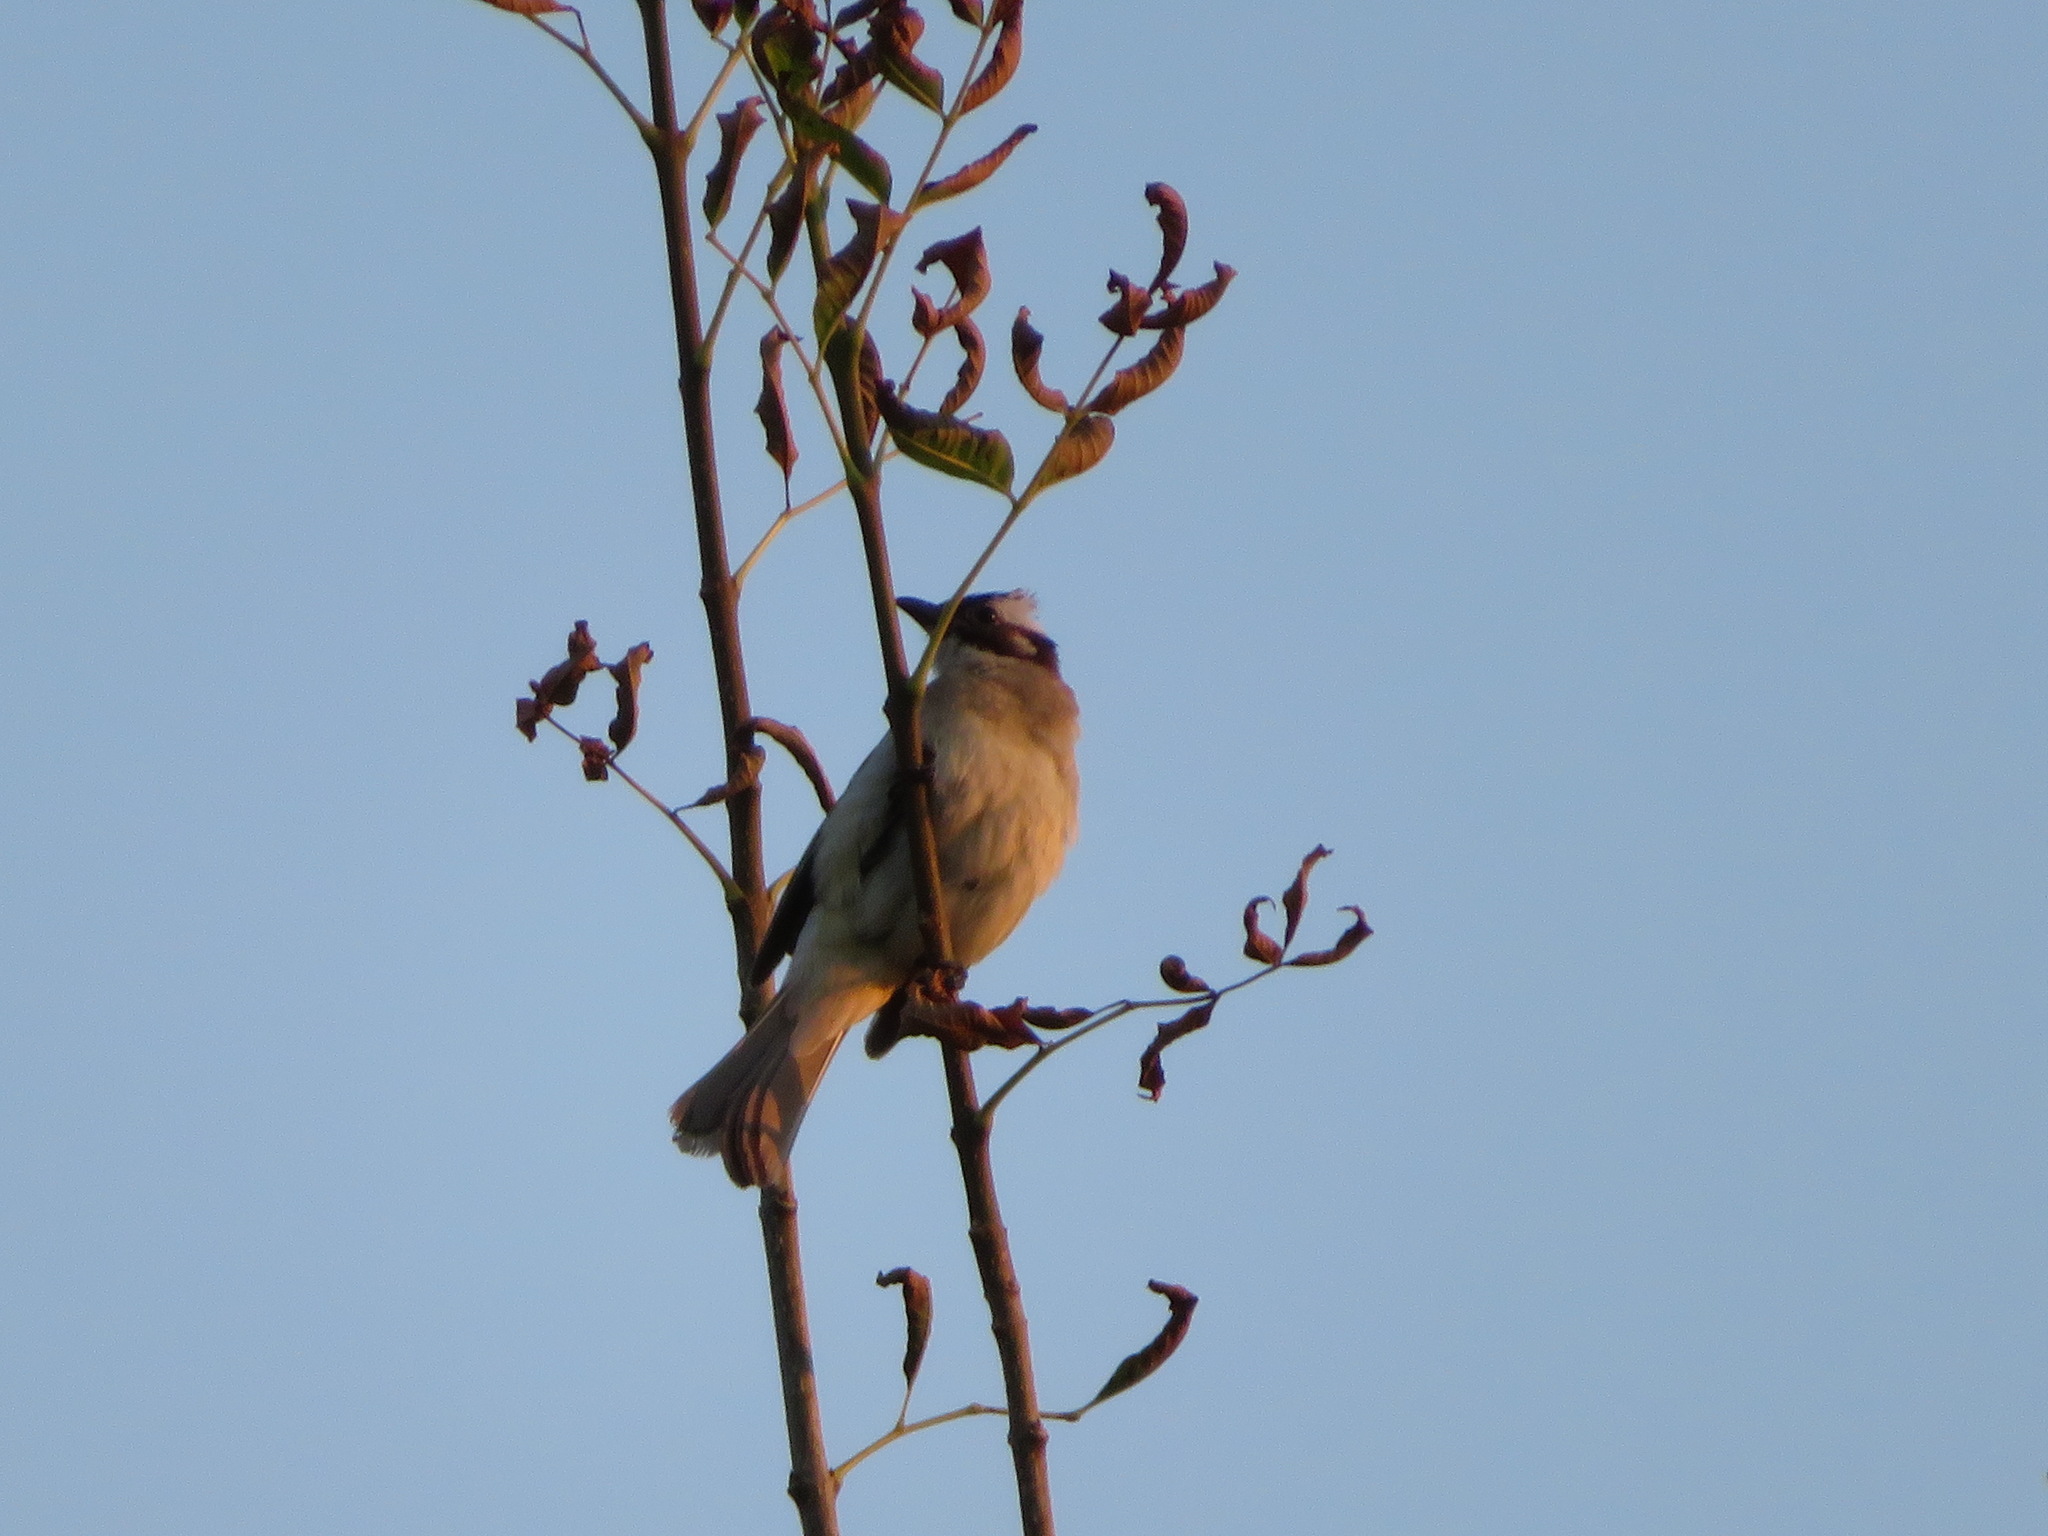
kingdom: Animalia
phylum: Chordata
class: Aves
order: Passeriformes
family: Pycnonotidae
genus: Pycnonotus
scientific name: Pycnonotus sinensis
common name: Light-vented bulbul
